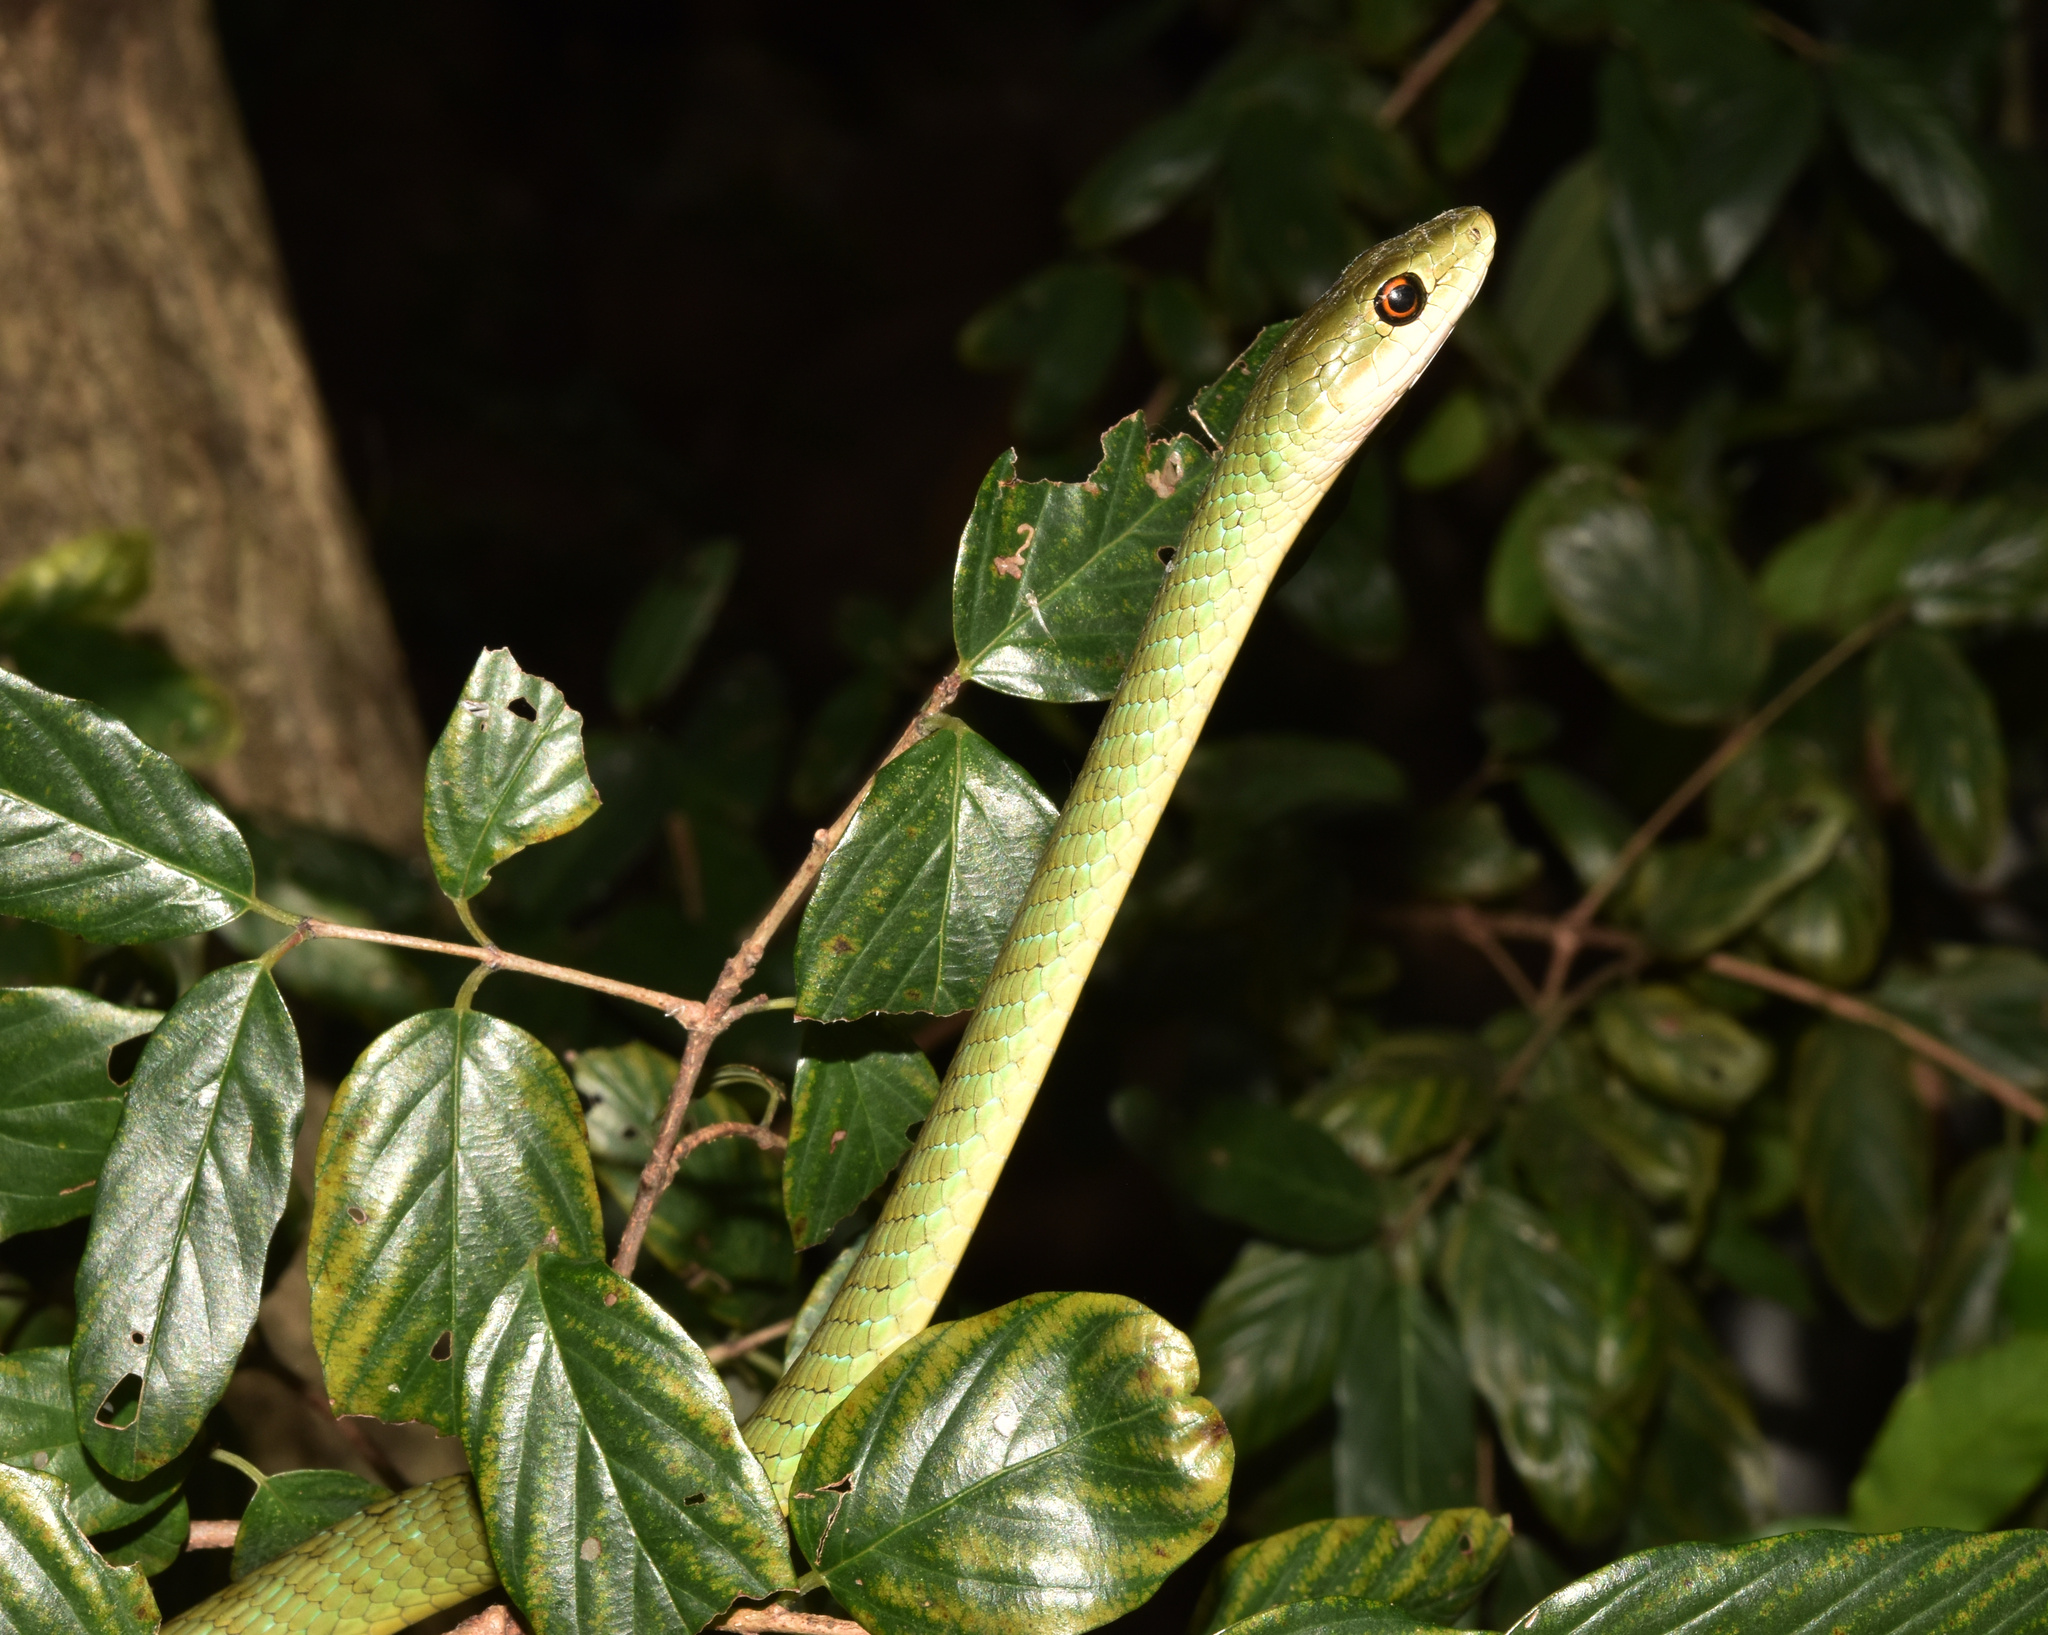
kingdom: Animalia
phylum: Chordata
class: Squamata
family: Colubridae
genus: Philothamnus
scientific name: Philothamnus semivariegatus
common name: Spotted bush snake
